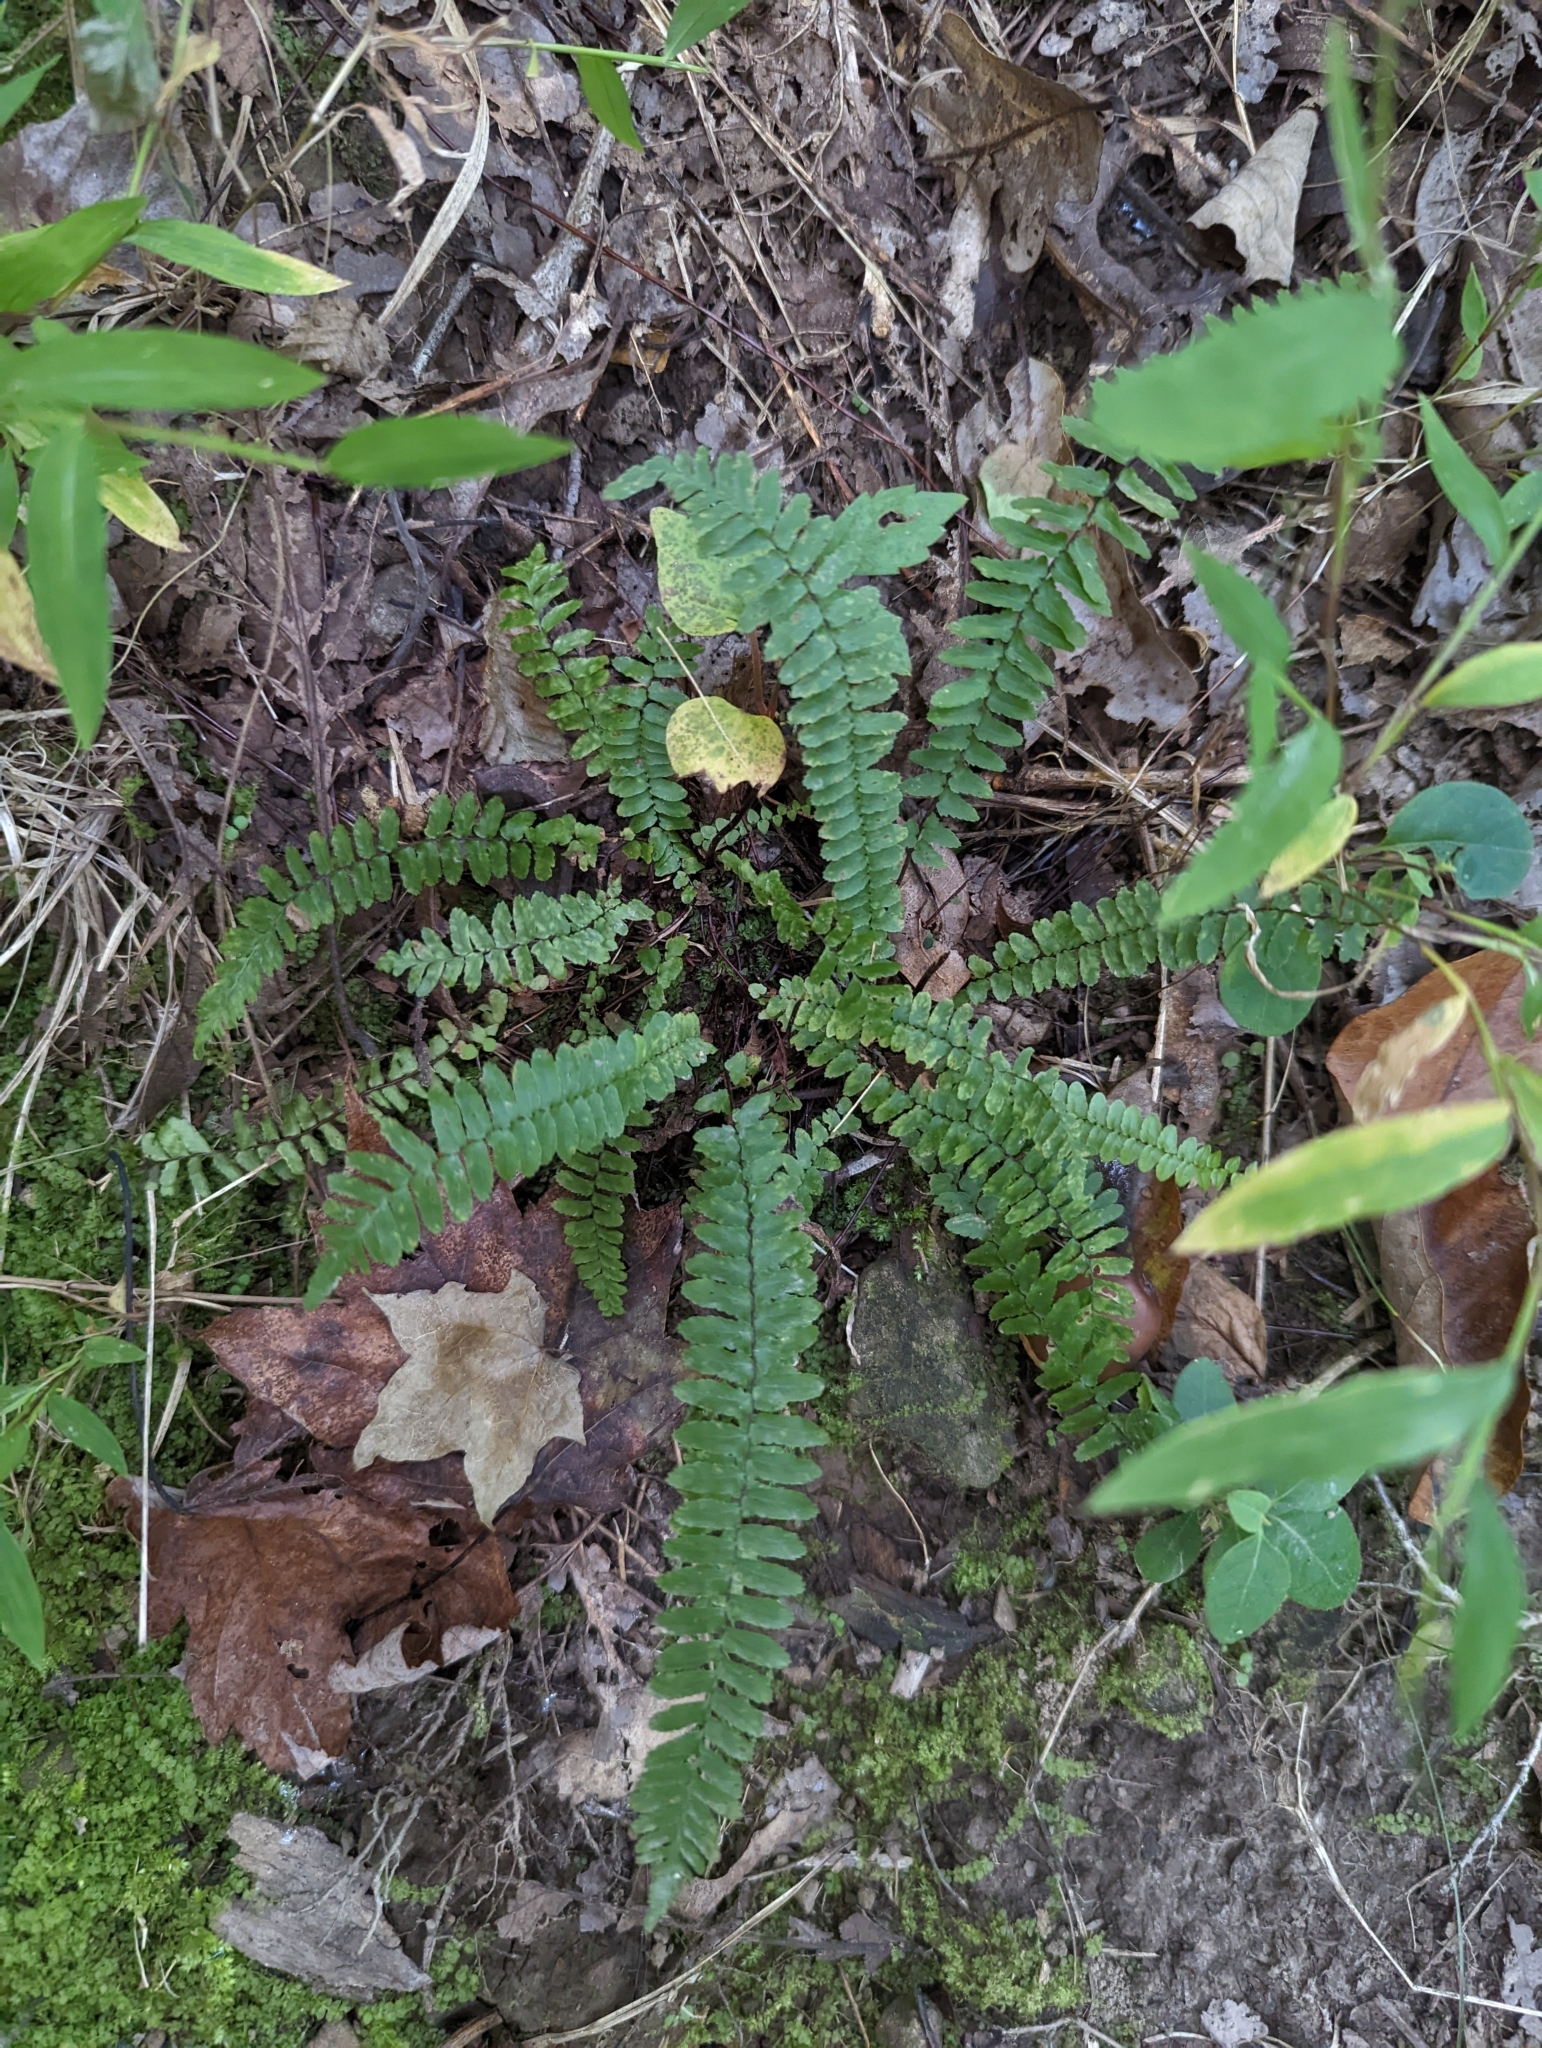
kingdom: Plantae
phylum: Tracheophyta
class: Polypodiopsida
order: Polypodiales
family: Aspleniaceae
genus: Asplenium
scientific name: Asplenium platyneuron
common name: Ebony spleenwort
